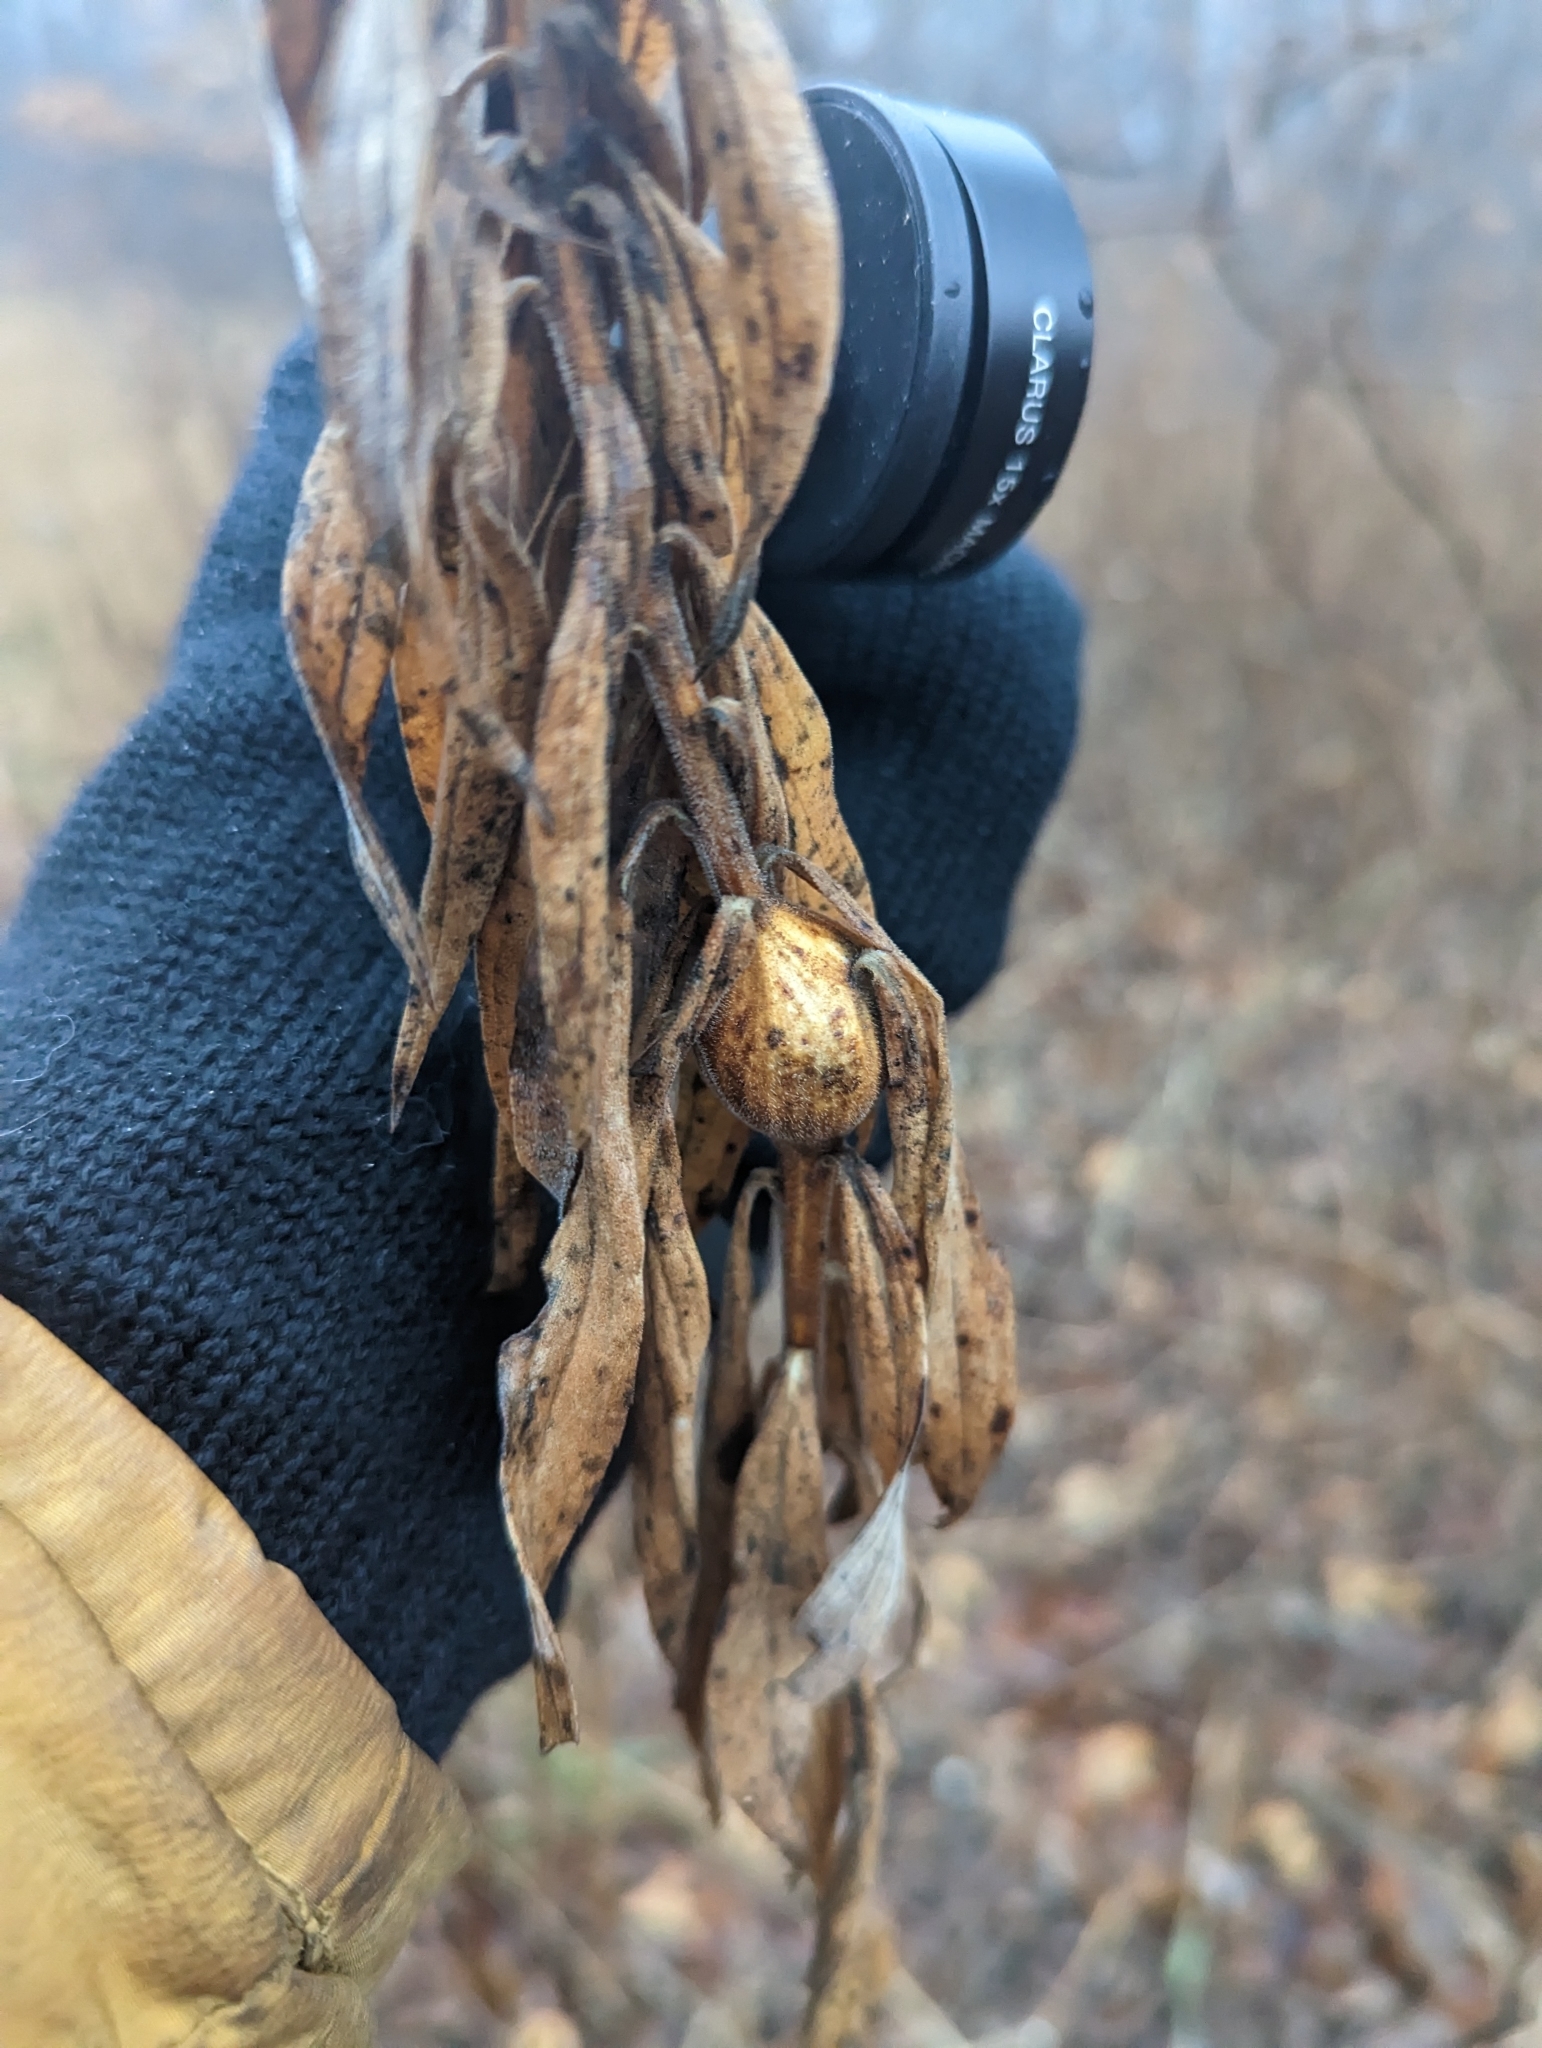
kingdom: Animalia
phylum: Arthropoda
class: Insecta
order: Diptera
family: Tephritidae
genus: Eurosta
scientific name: Eurosta solidaginis
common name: Goldenrod gall fly
